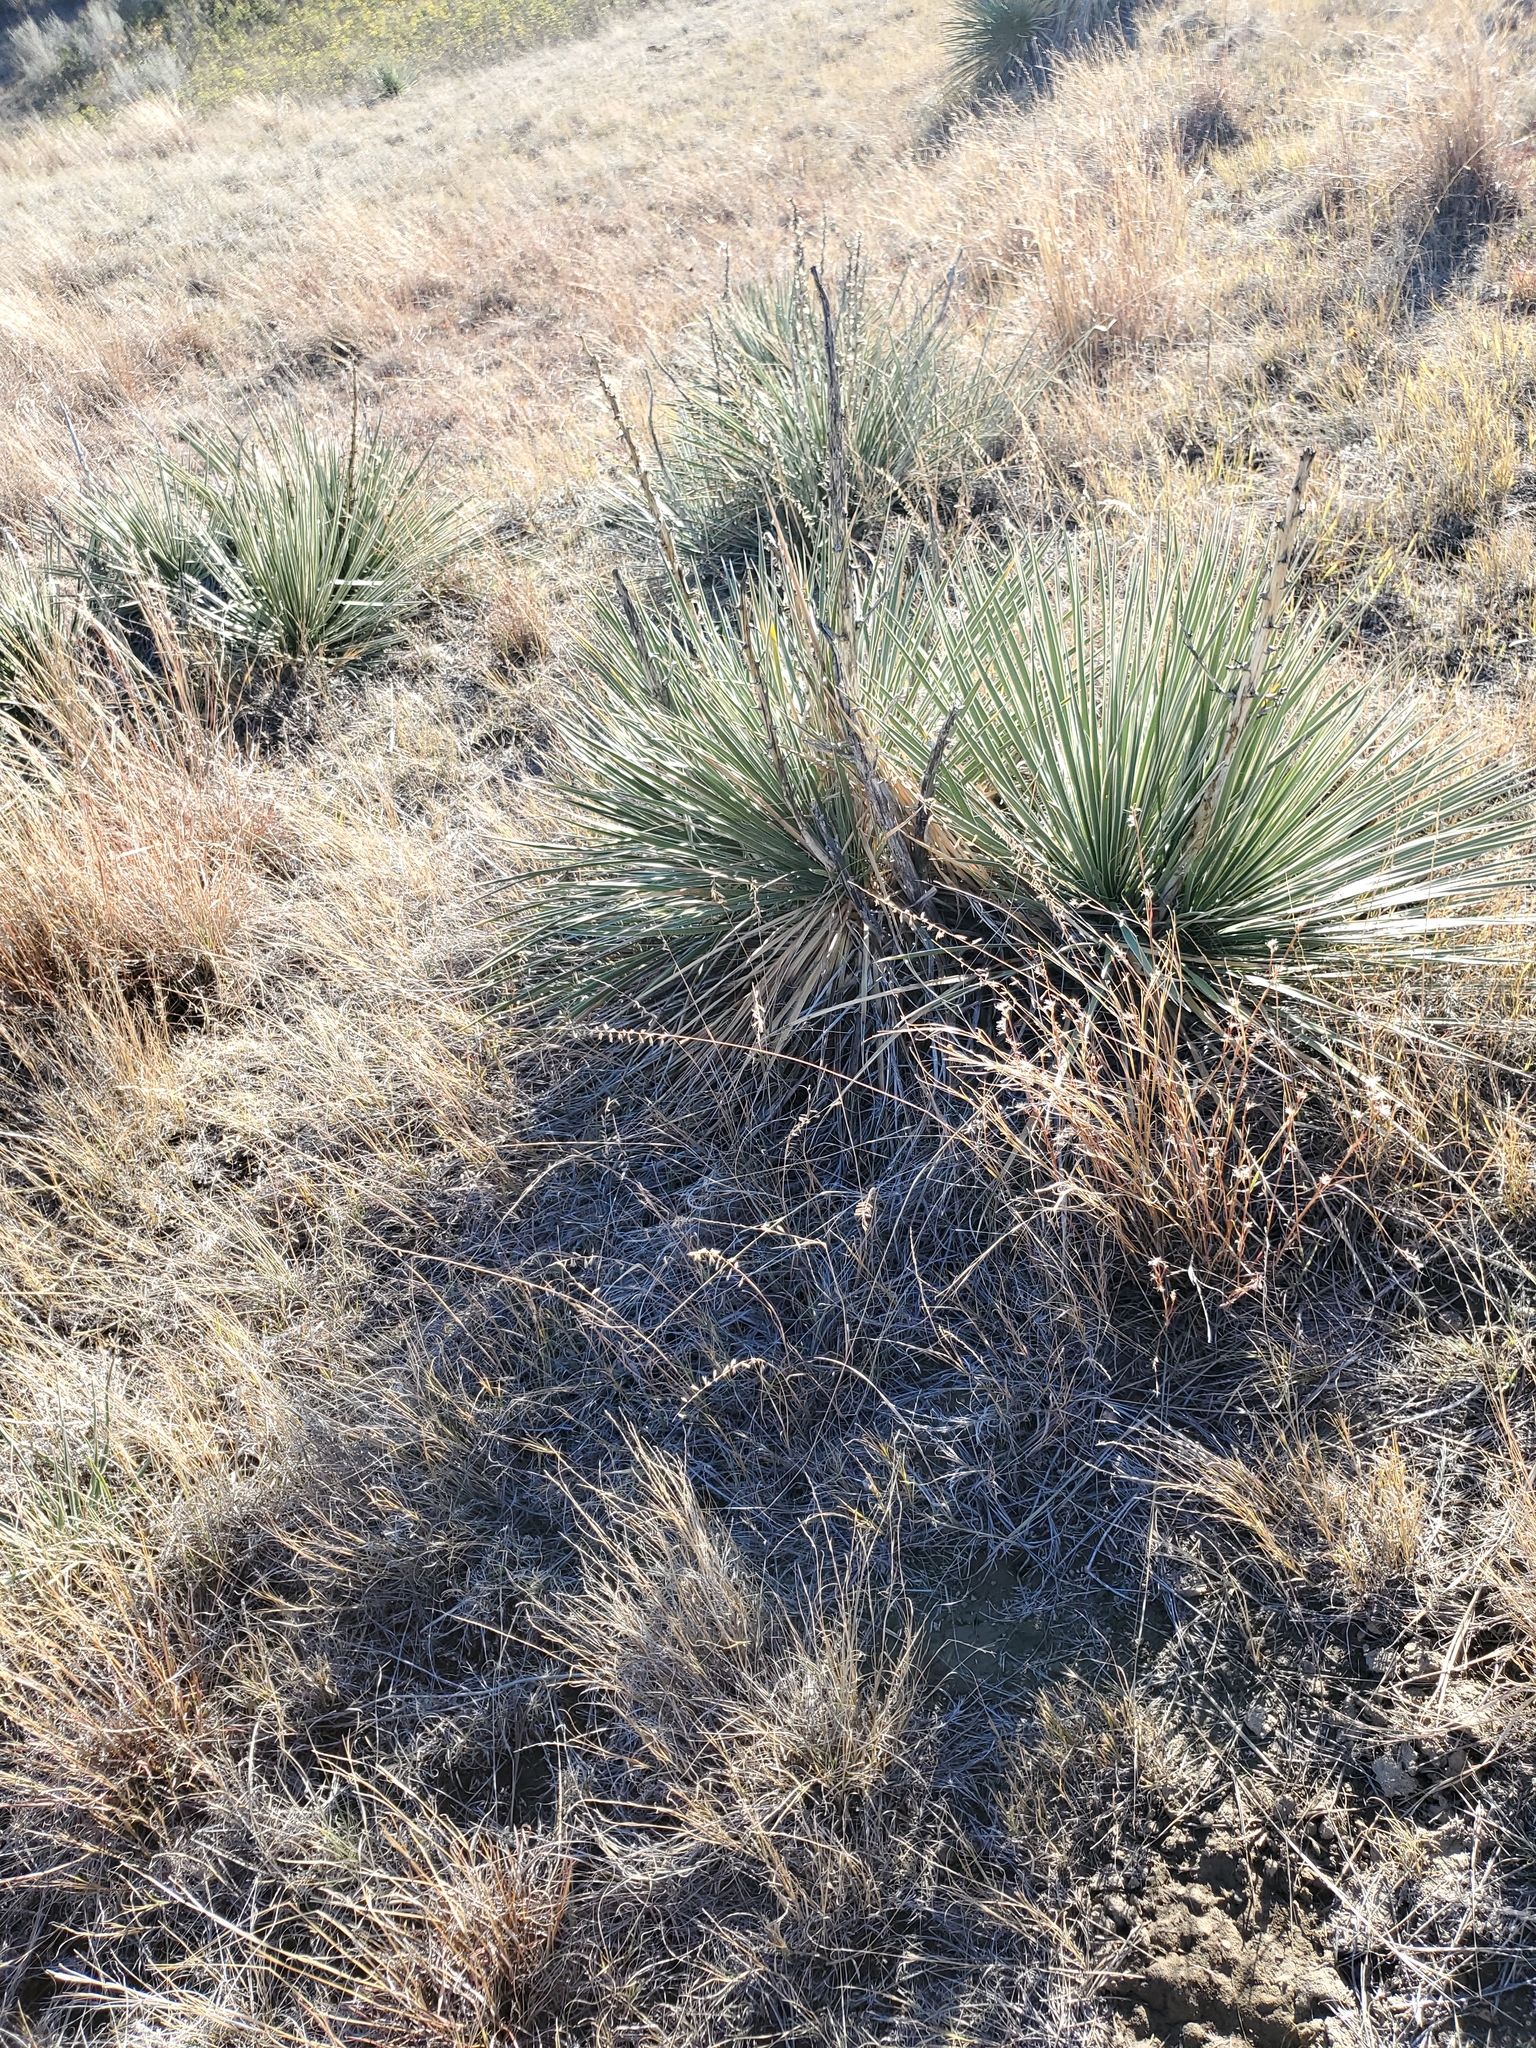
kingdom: Plantae
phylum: Tracheophyta
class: Liliopsida
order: Asparagales
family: Asparagaceae
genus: Yucca
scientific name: Yucca glauca
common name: Great plains yucca
